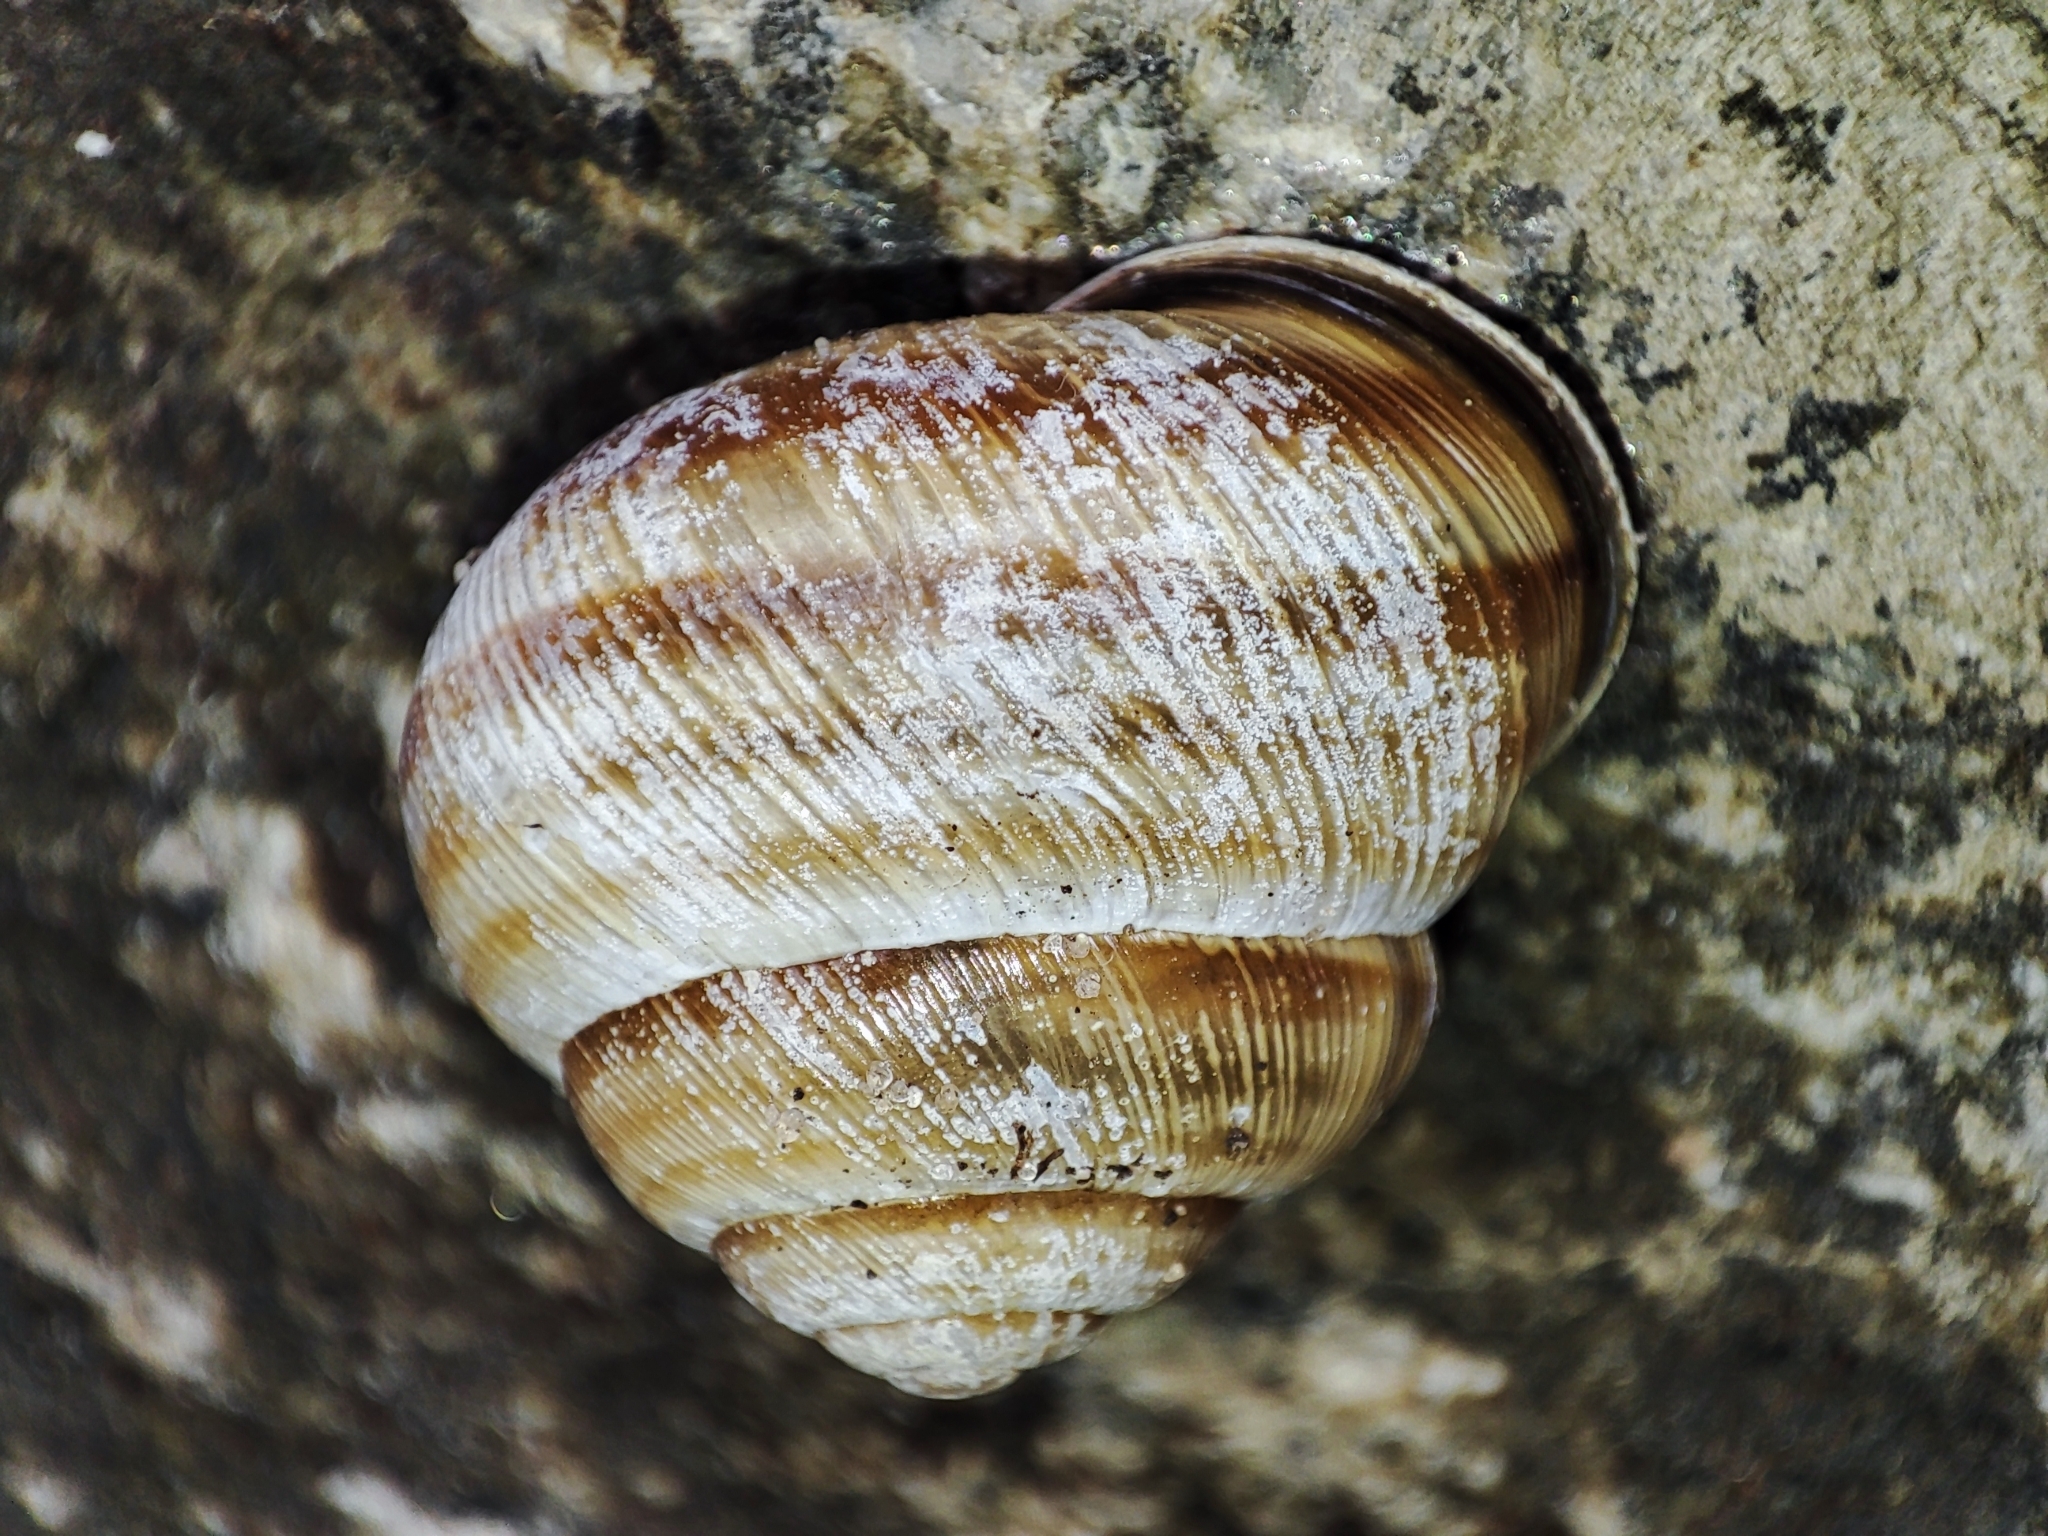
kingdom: Animalia
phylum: Mollusca
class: Gastropoda
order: Stylommatophora
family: Helicidae
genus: Caucasotachea
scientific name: Caucasotachea vindobonensis
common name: European helicid land snail
